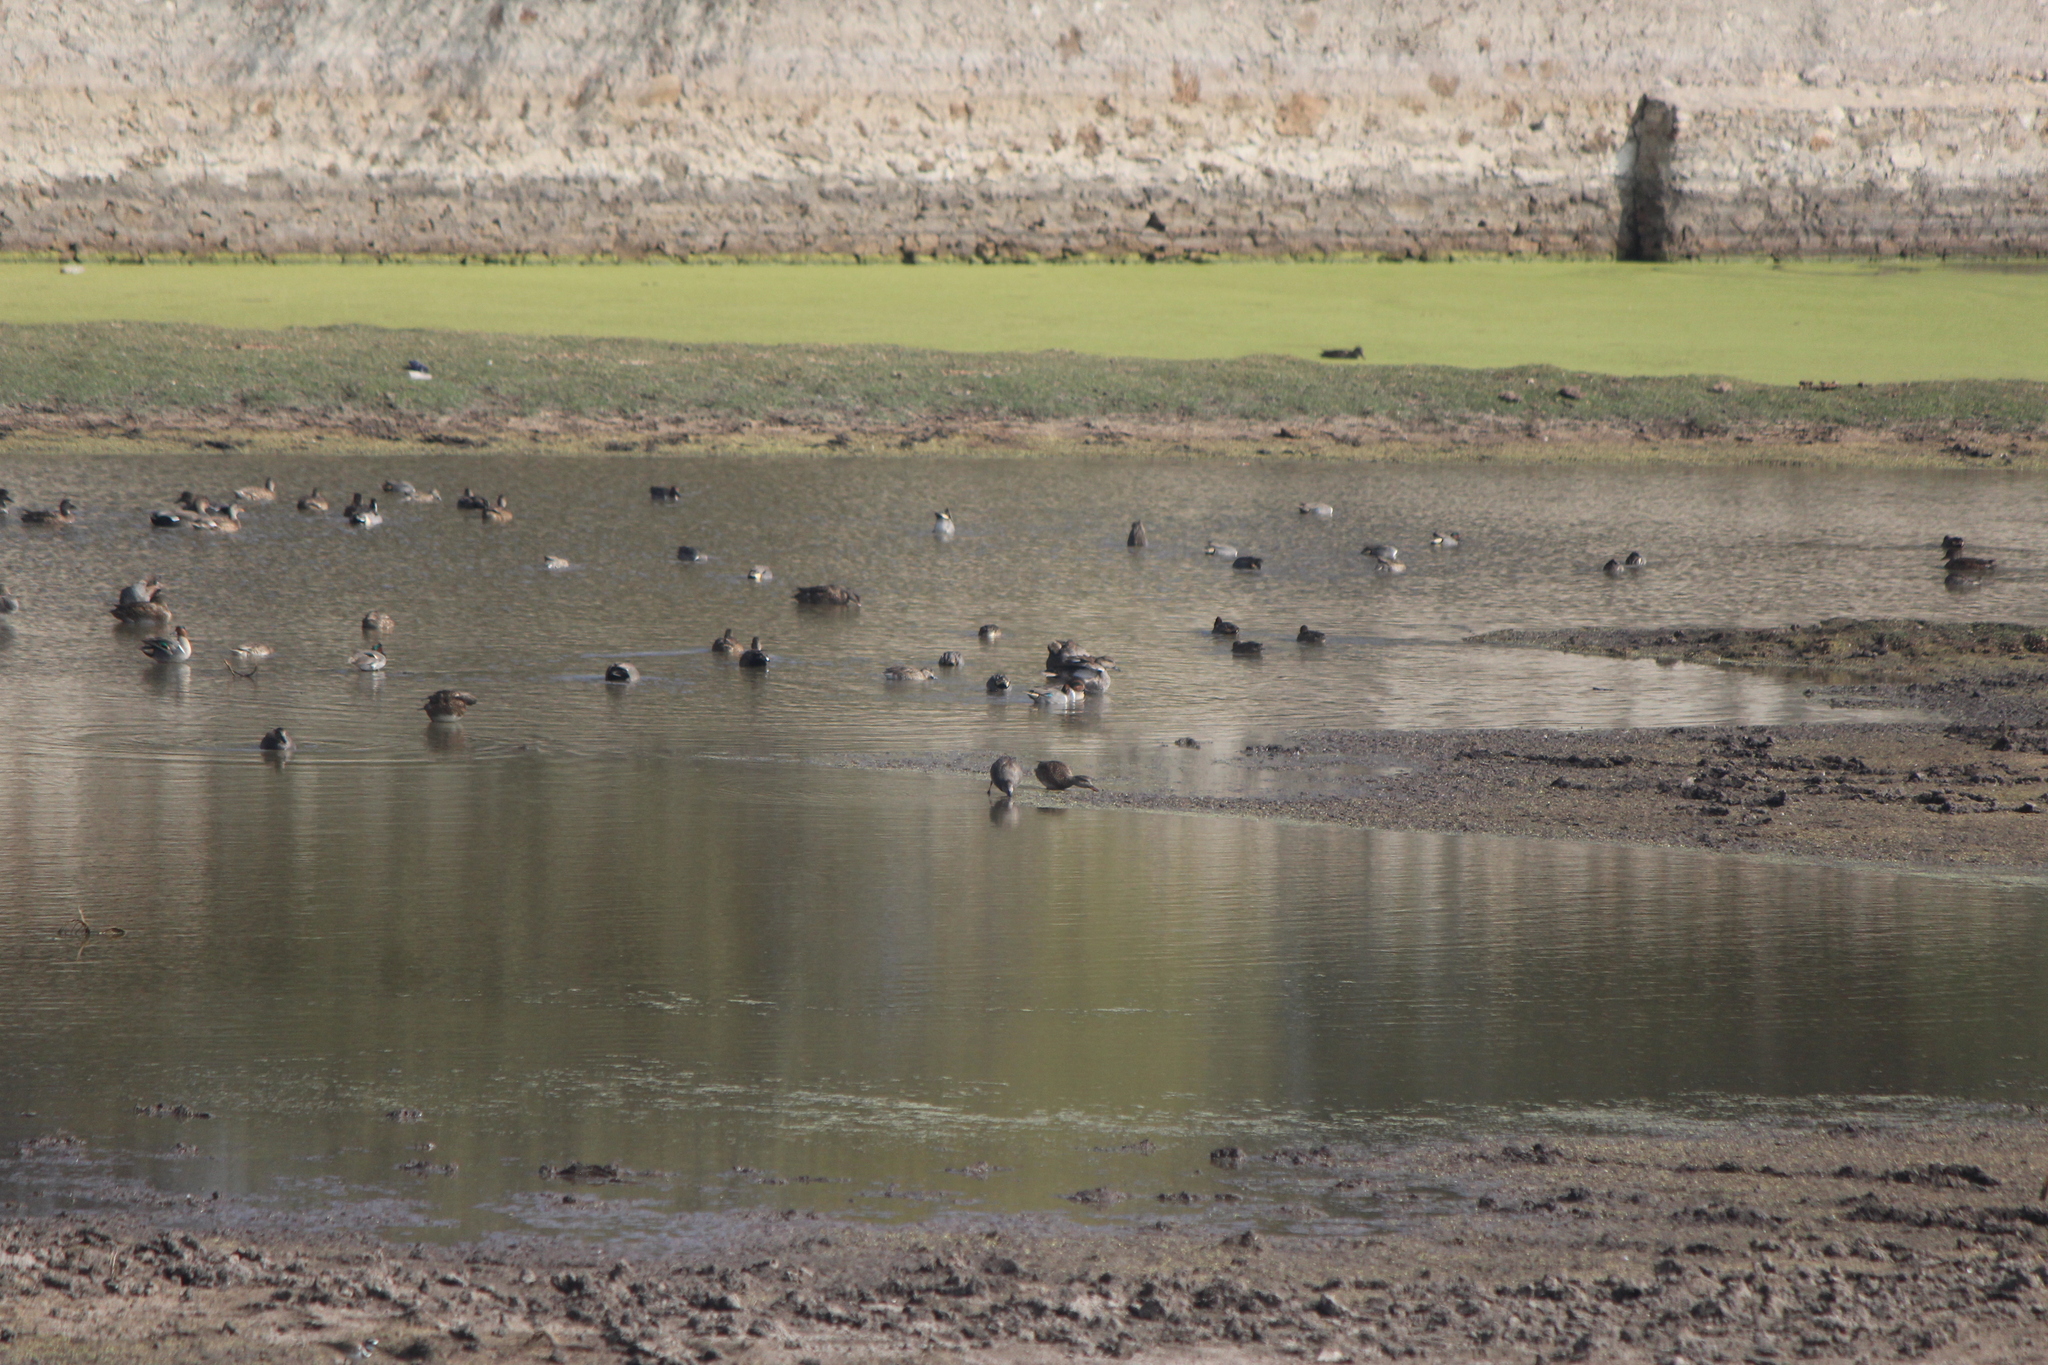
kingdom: Animalia
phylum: Chordata
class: Aves
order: Anseriformes
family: Anatidae
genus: Anas
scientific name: Anas crecca
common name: Eurasian teal
